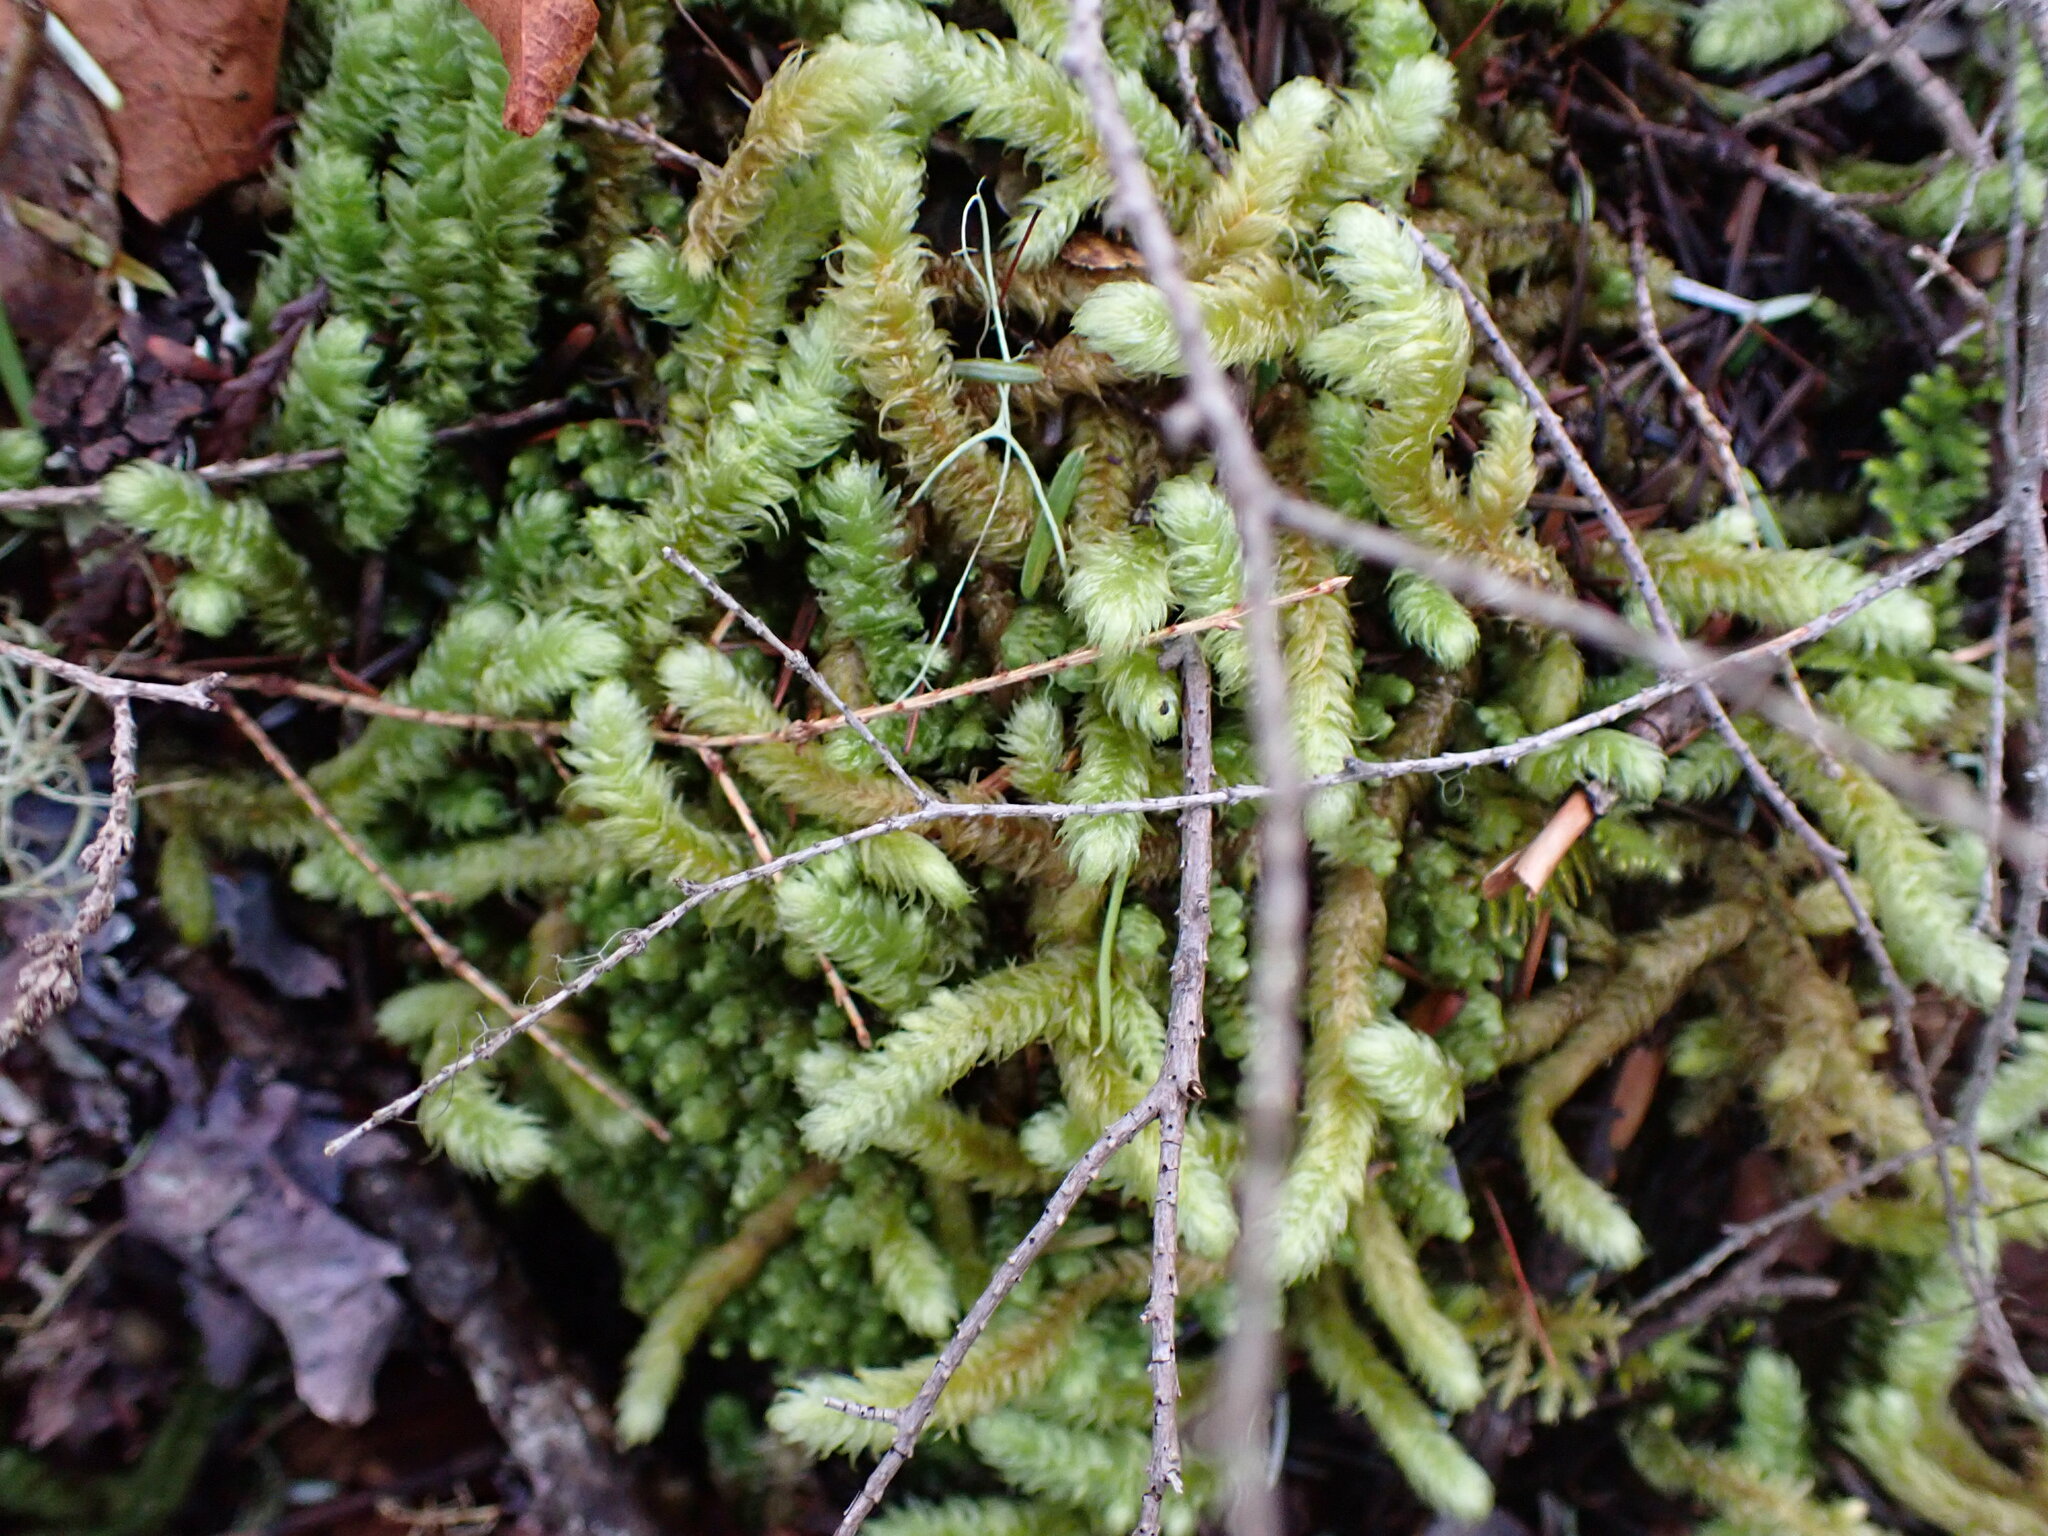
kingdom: Plantae
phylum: Bryophyta
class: Bryopsida
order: Hypnales
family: Hylocomiaceae
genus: Rhytidiopsis
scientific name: Rhytidiopsis robusta
